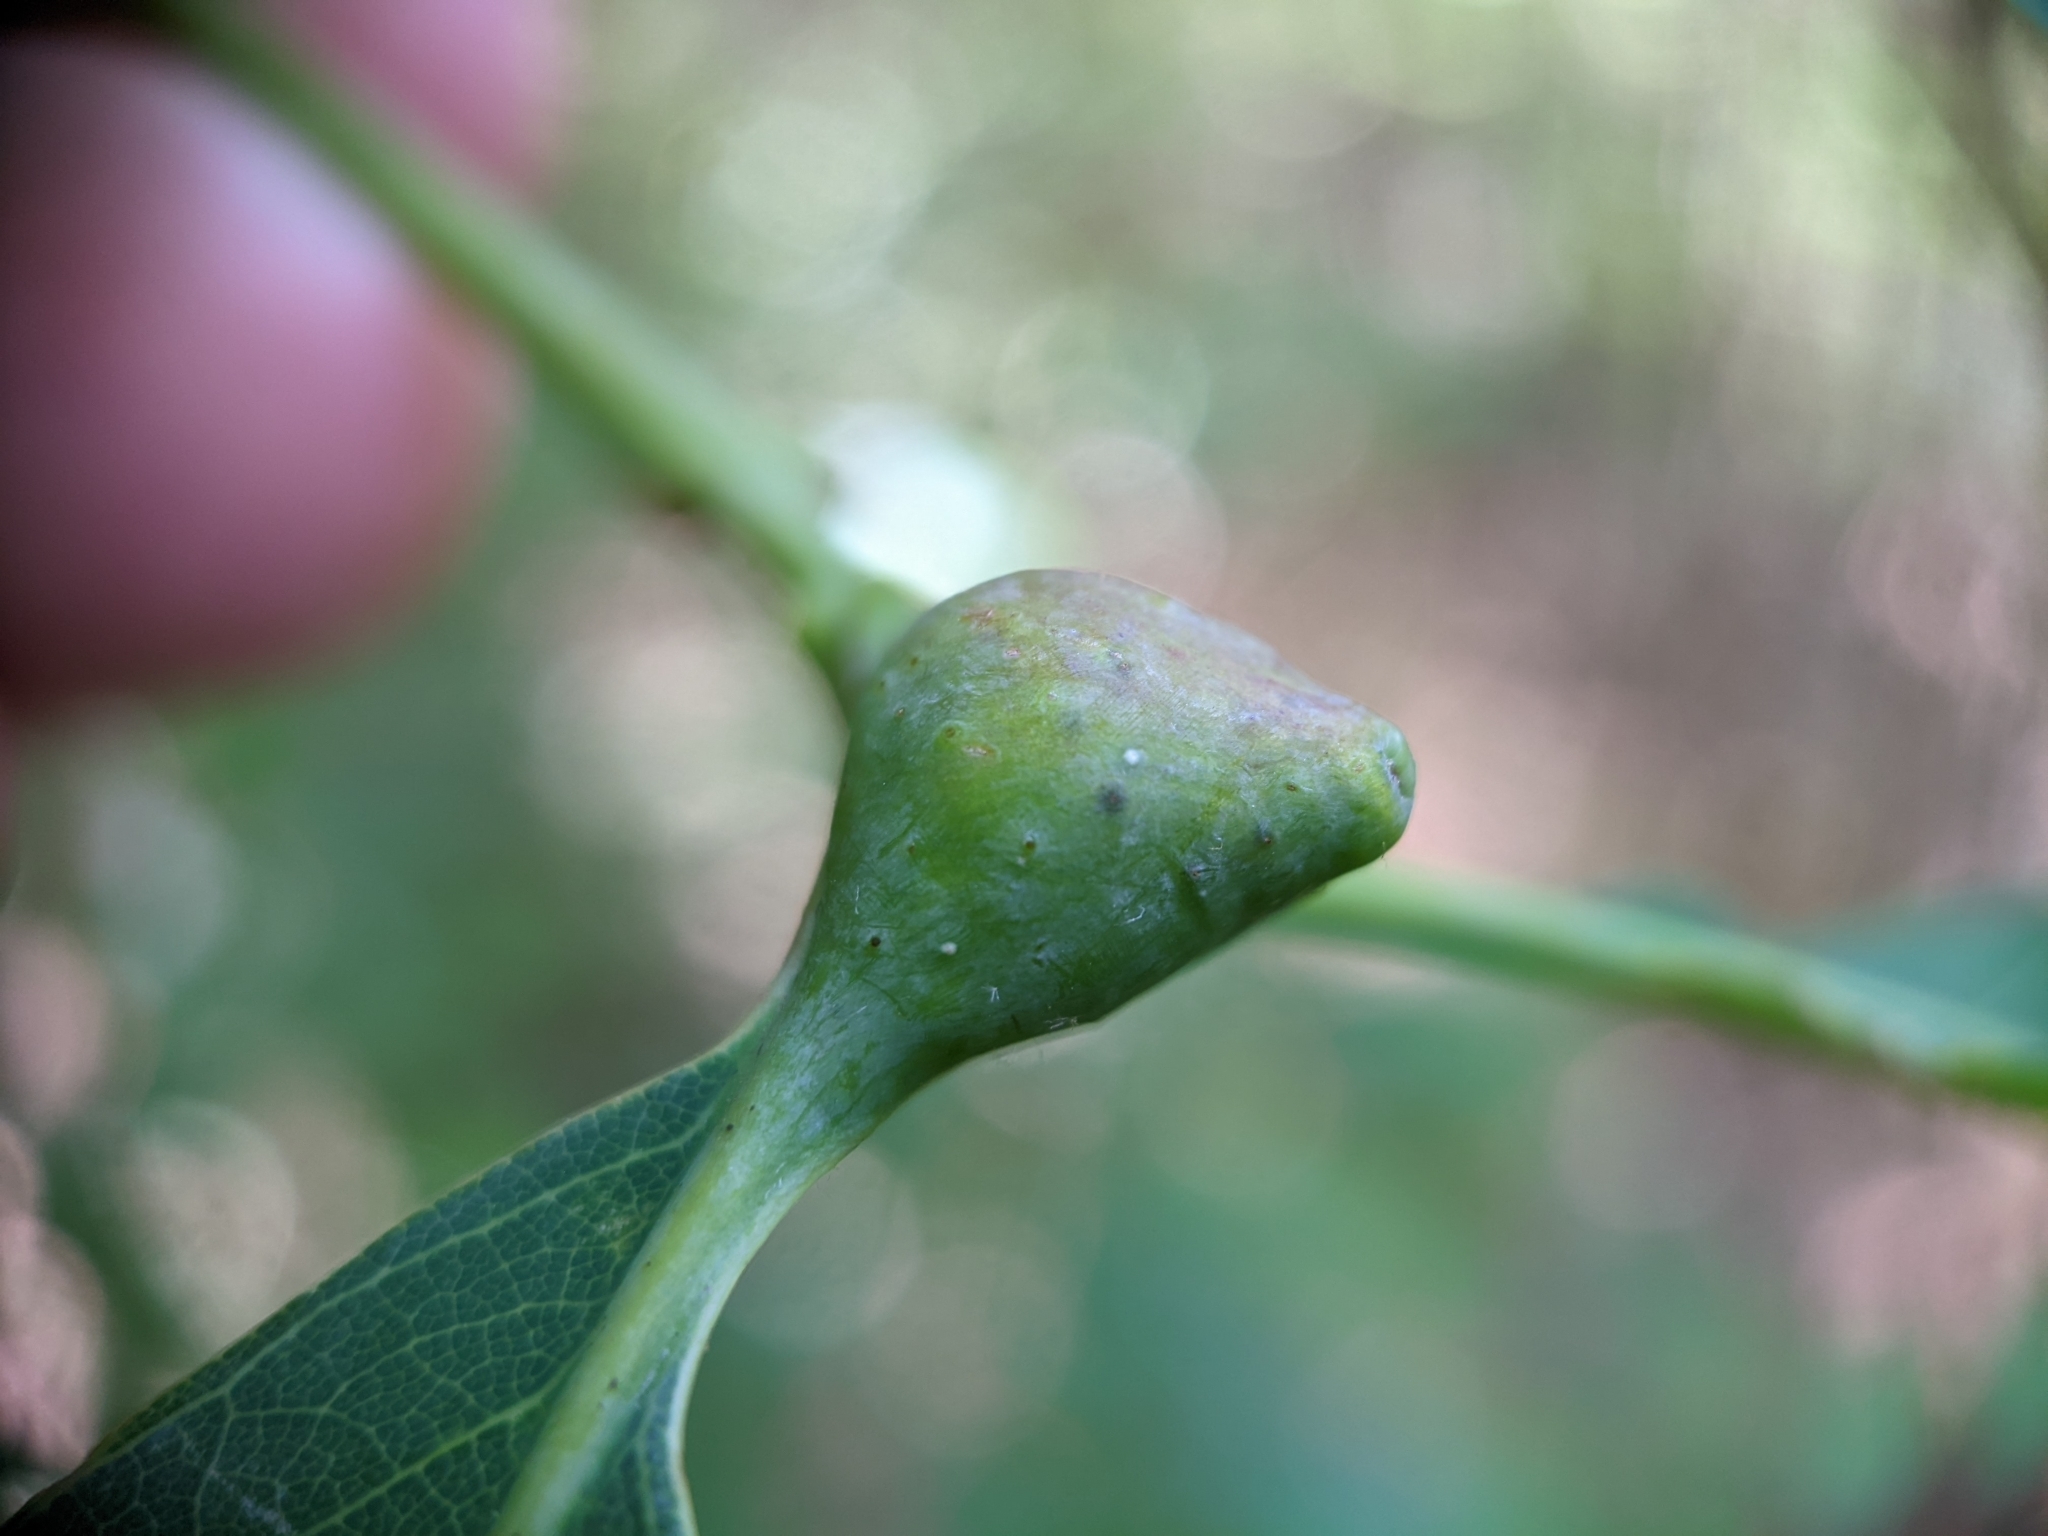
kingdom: Animalia
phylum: Arthropoda
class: Insecta
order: Hymenoptera
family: Cynipidae
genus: Andricus
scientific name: Andricus
